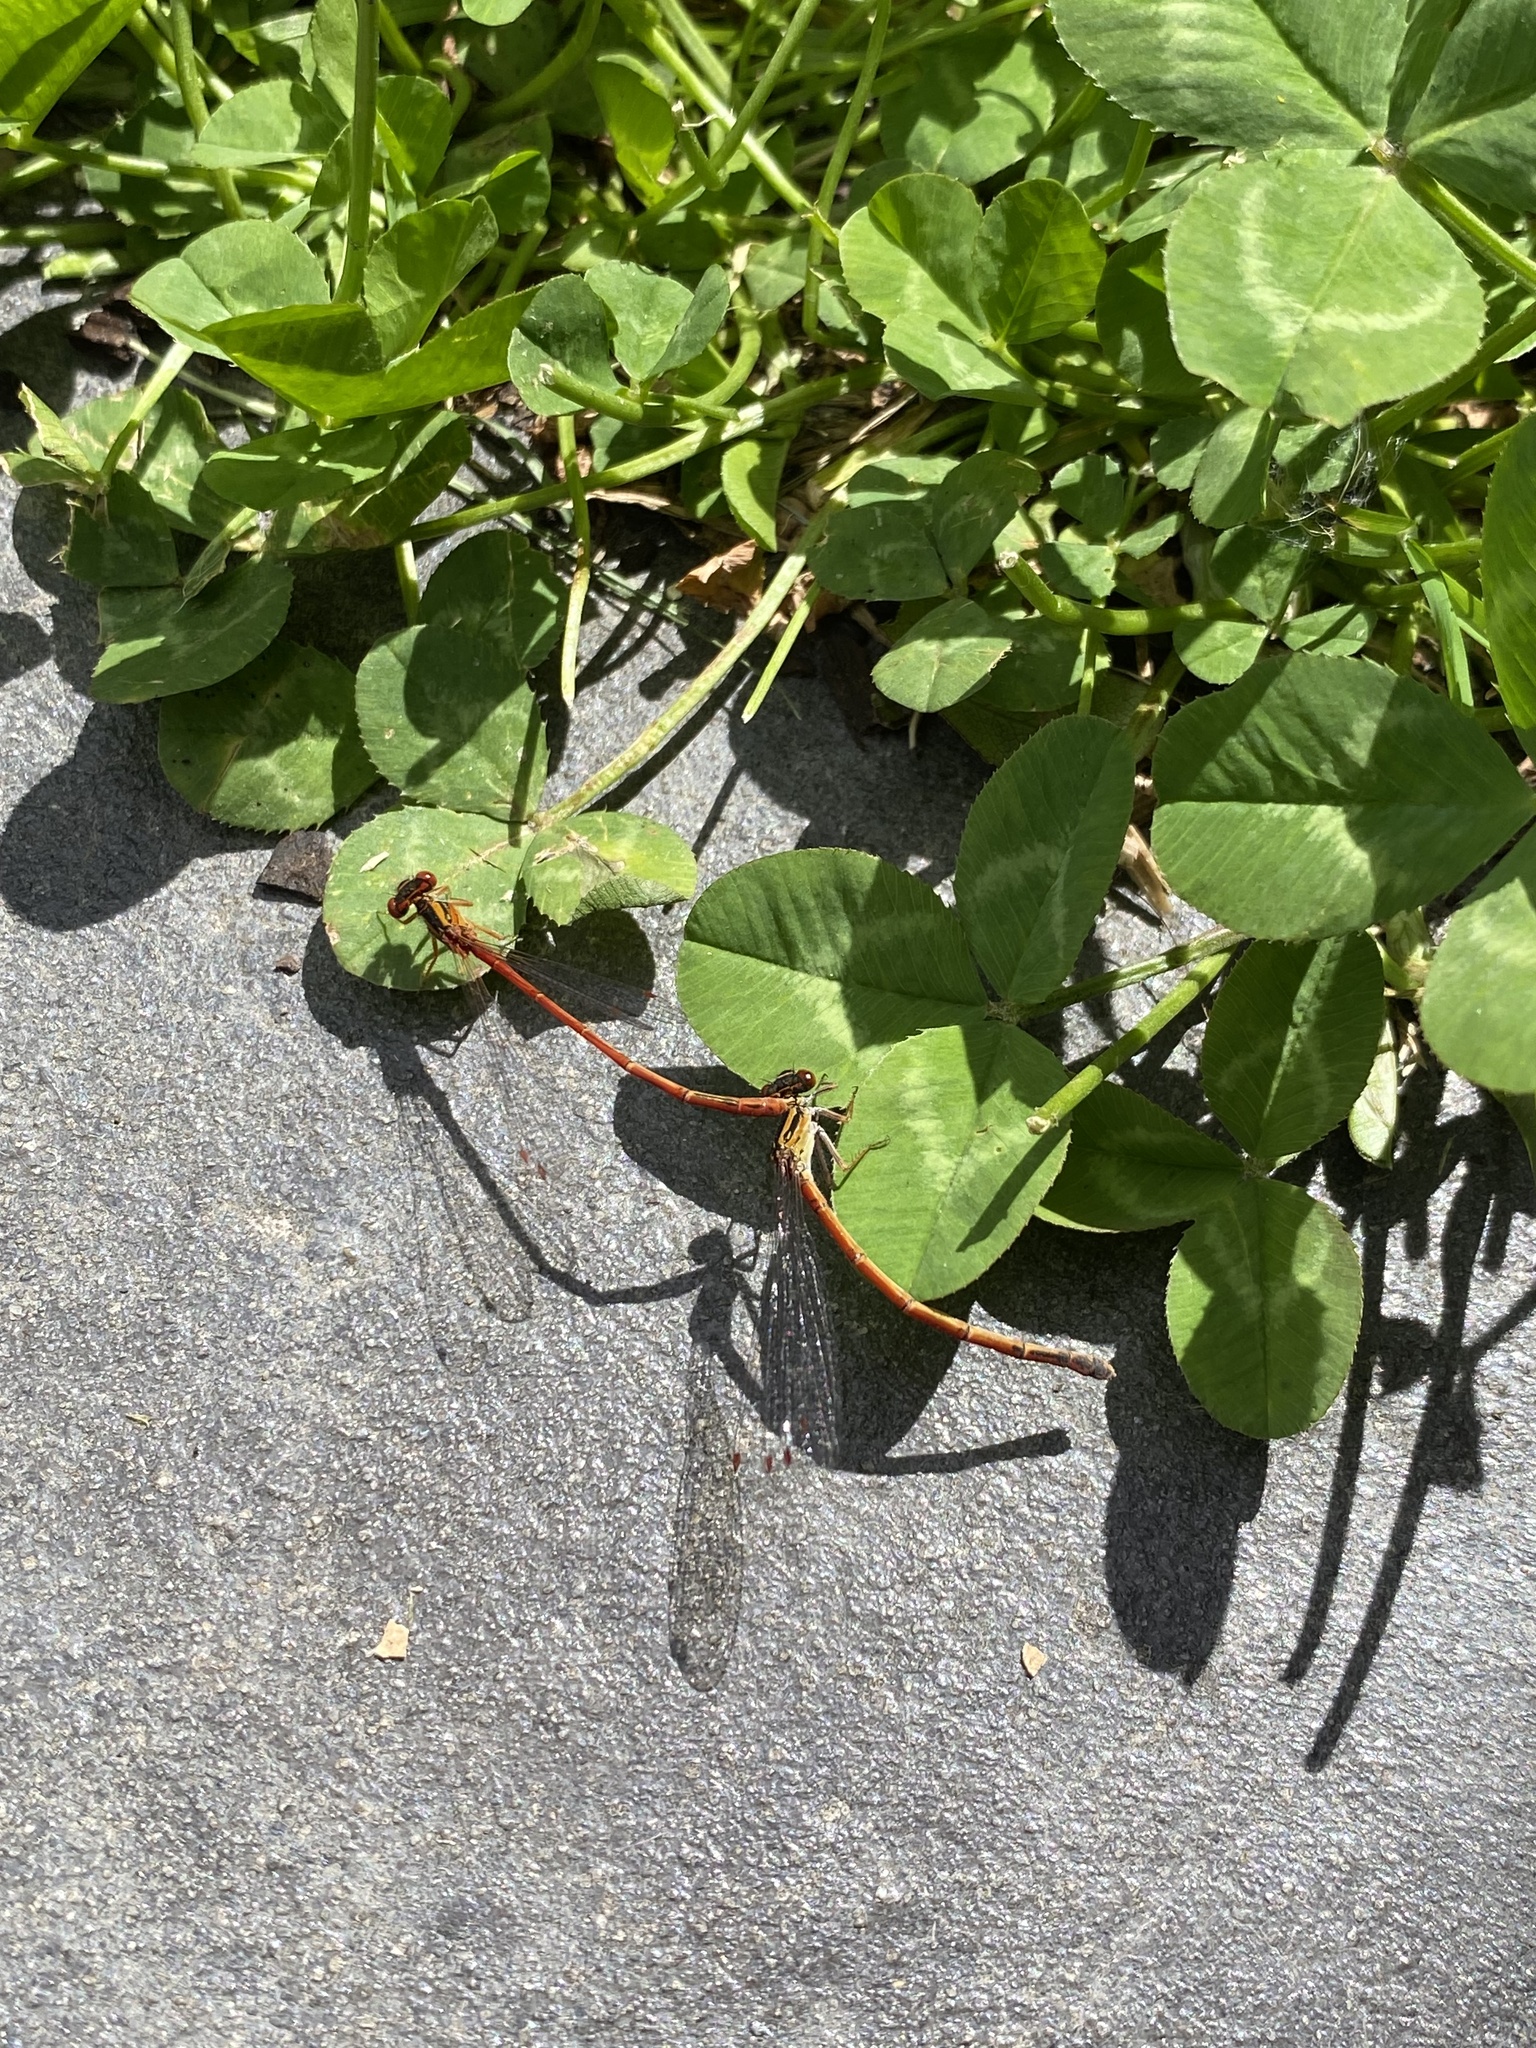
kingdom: Animalia
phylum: Arthropoda
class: Insecta
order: Odonata
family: Coenagrionidae
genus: Xanthocnemis
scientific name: Xanthocnemis zealandica
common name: Common redcoat damselfly
